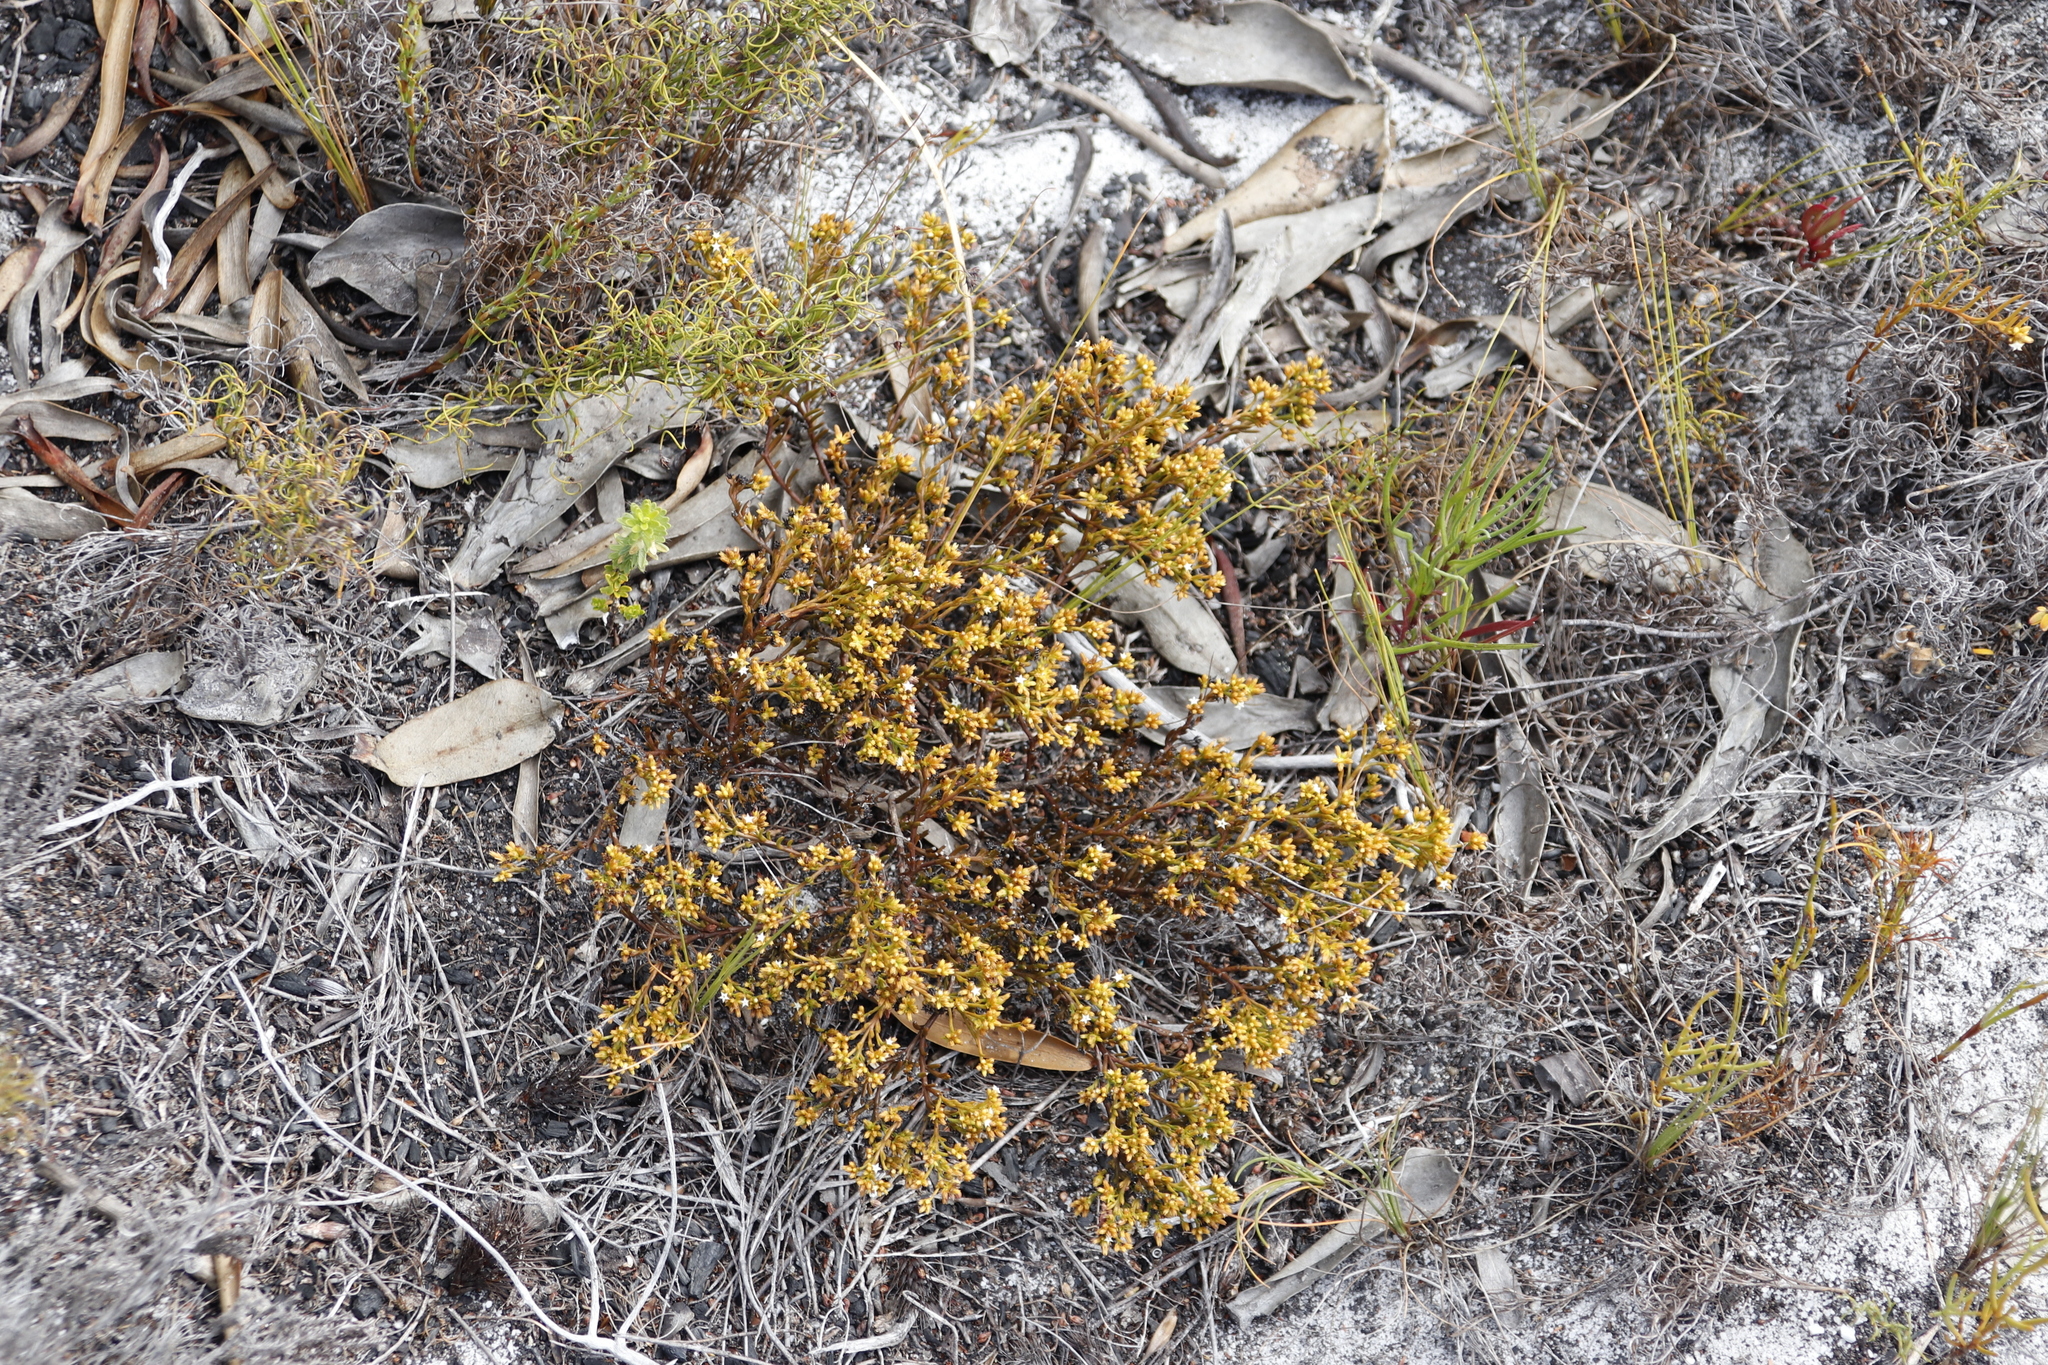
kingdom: Plantae
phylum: Tracheophyta
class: Magnoliopsida
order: Santalales
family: Thesiaceae
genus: Thesium
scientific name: Thesium acuminatum
